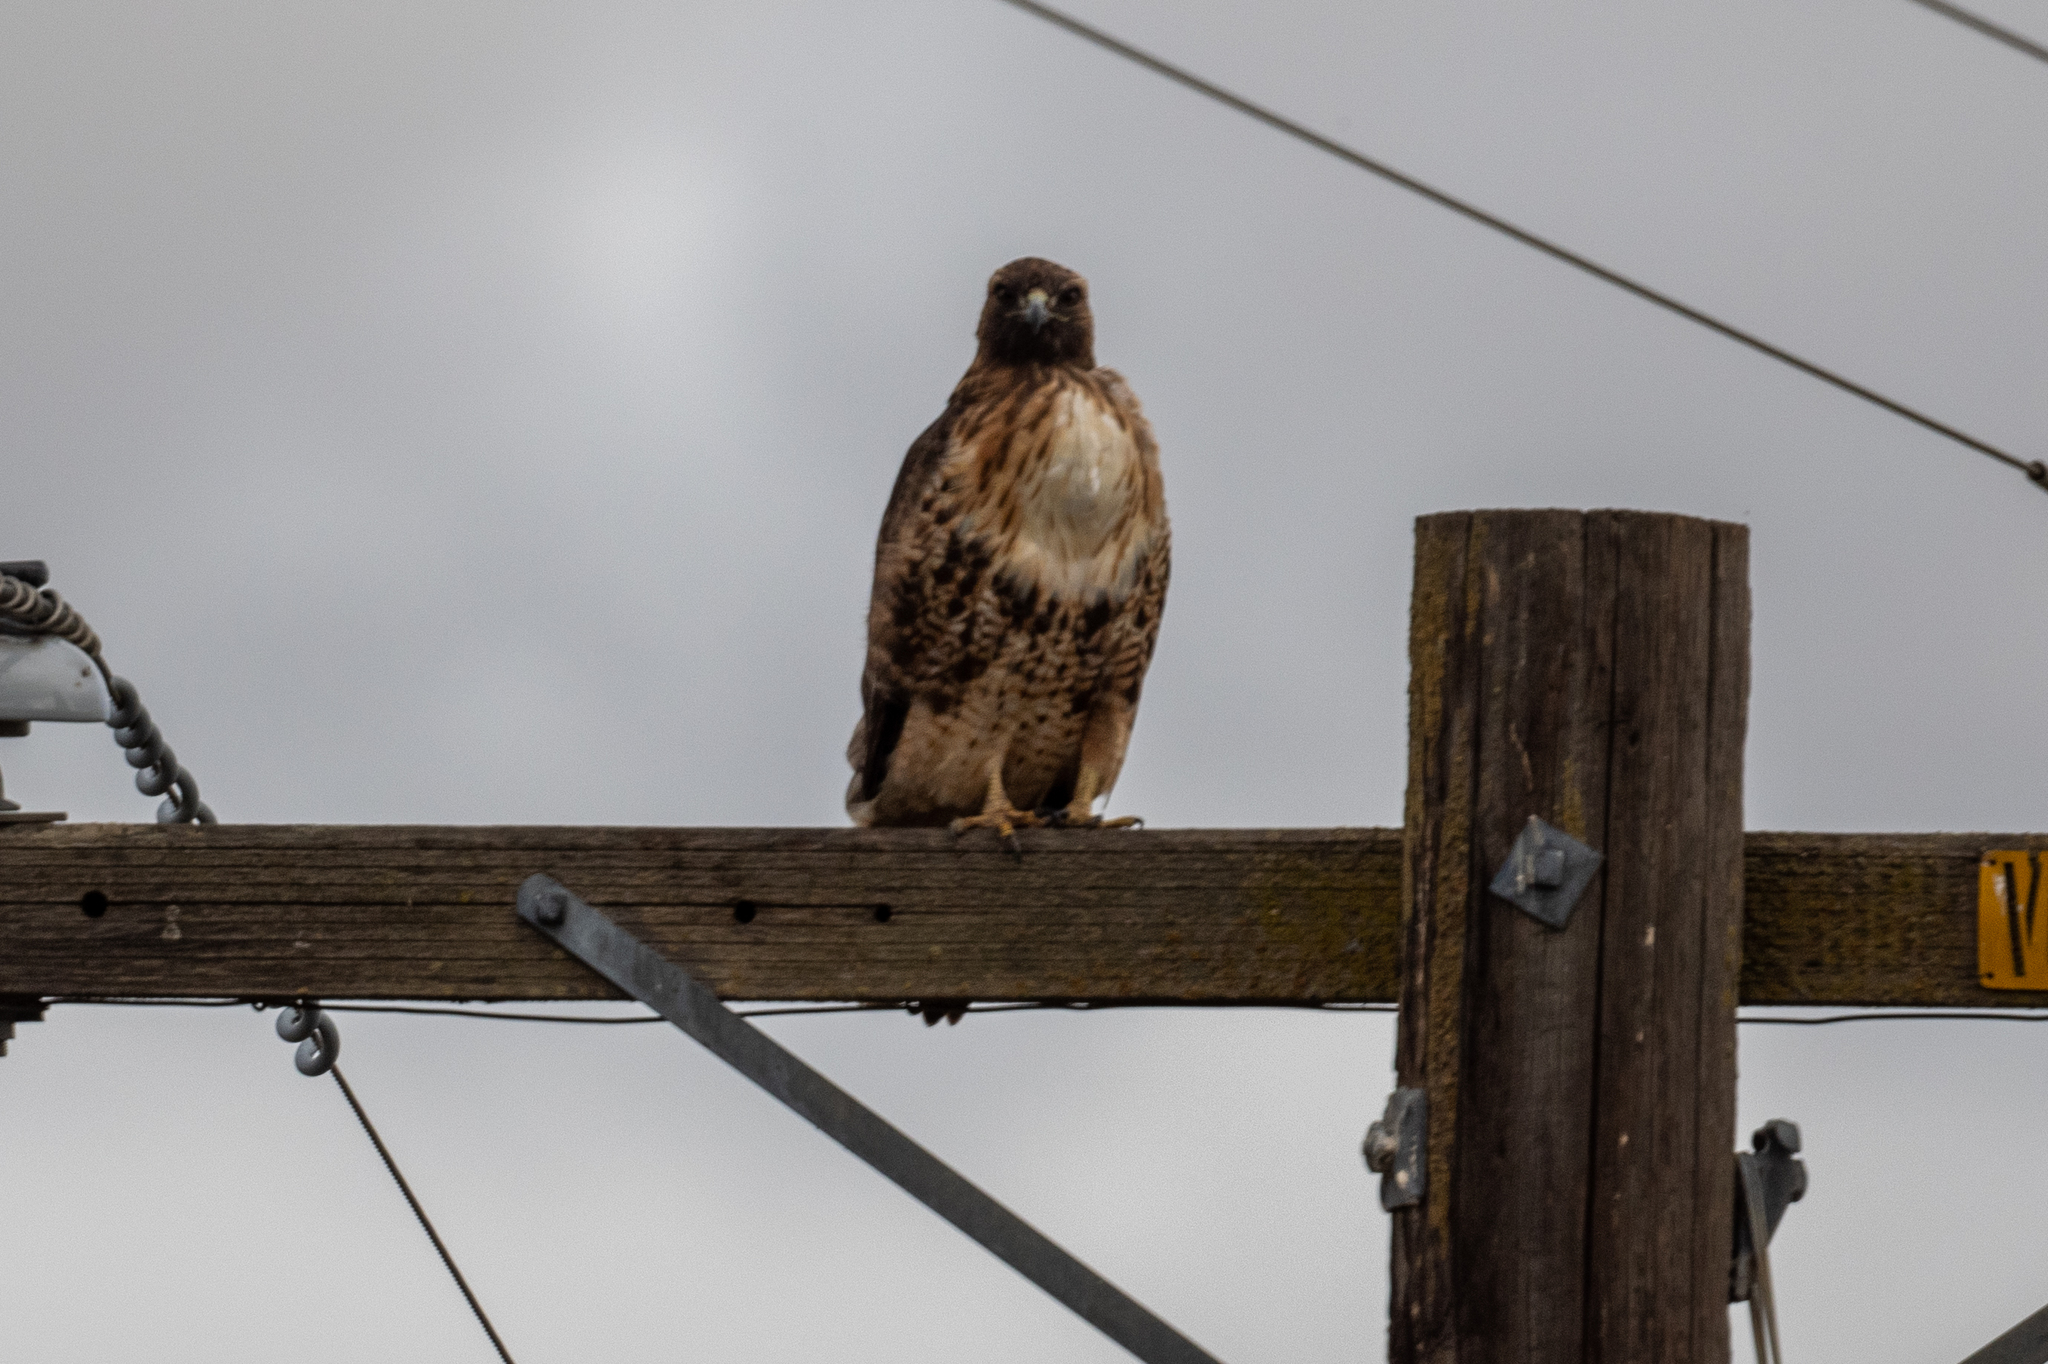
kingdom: Animalia
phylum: Chordata
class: Aves
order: Accipitriformes
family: Accipitridae
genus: Buteo
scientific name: Buteo jamaicensis
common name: Red-tailed hawk
